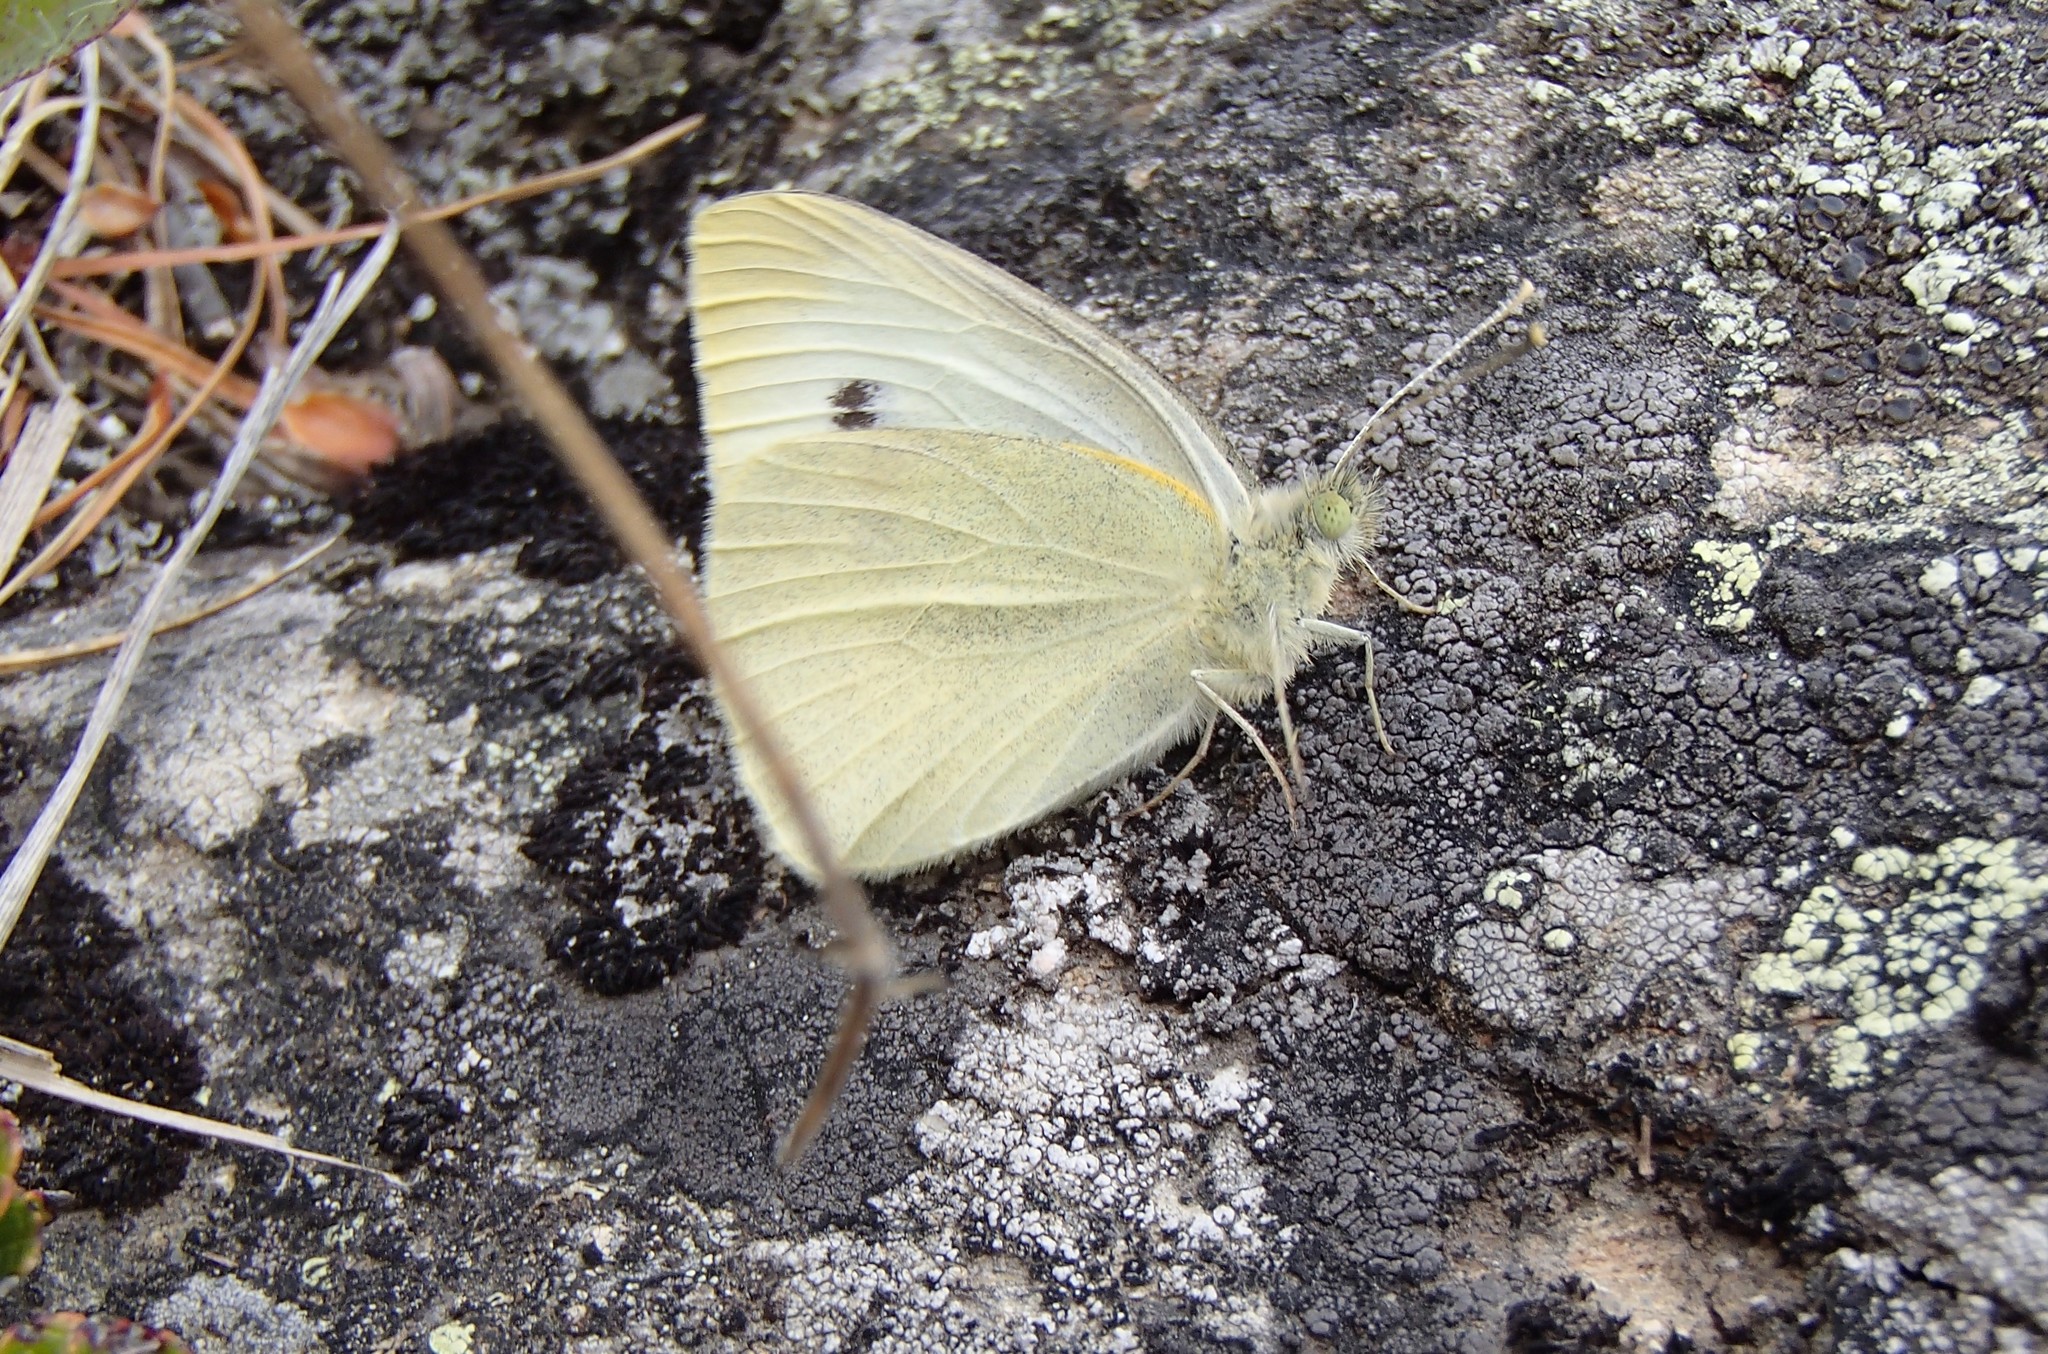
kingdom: Animalia
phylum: Arthropoda
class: Insecta
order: Lepidoptera
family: Pieridae
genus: Pieris
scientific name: Pieris rapae
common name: Small white
